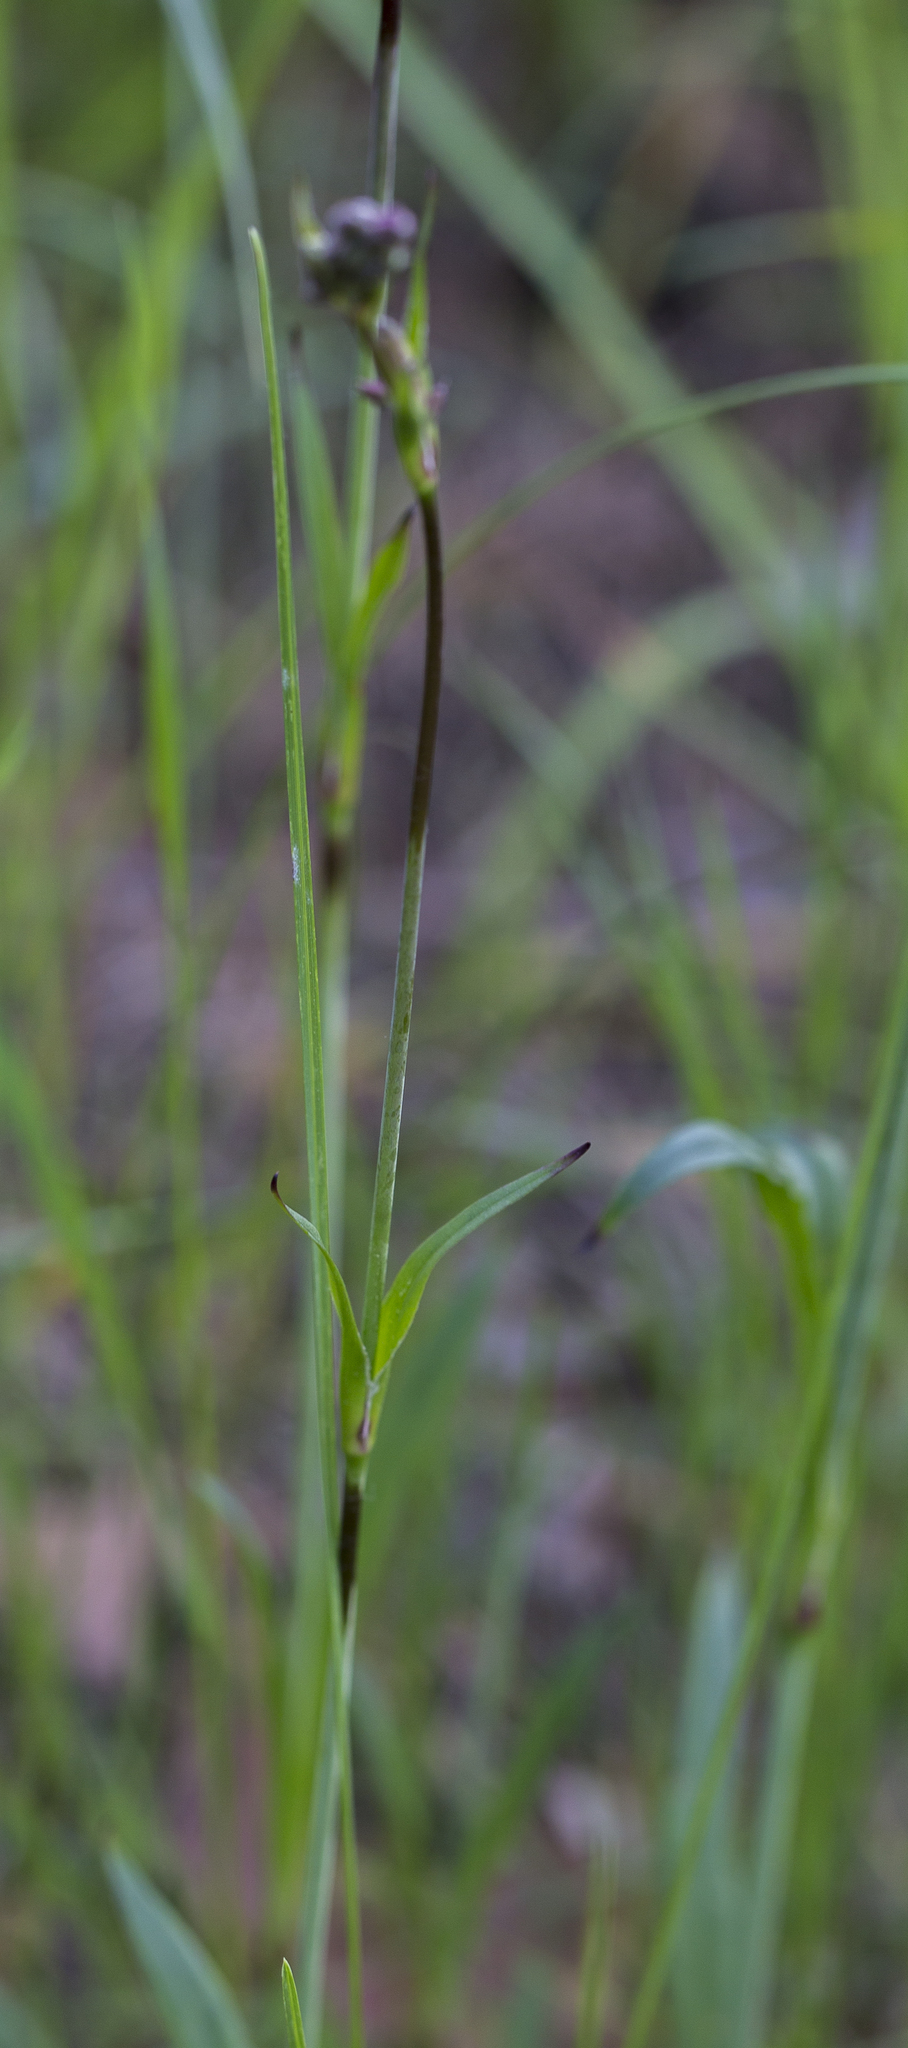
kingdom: Plantae
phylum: Tracheophyta
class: Magnoliopsida
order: Caryophyllales
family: Caryophyllaceae
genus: Viscaria
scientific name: Viscaria vulgaris
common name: Clammy campion
